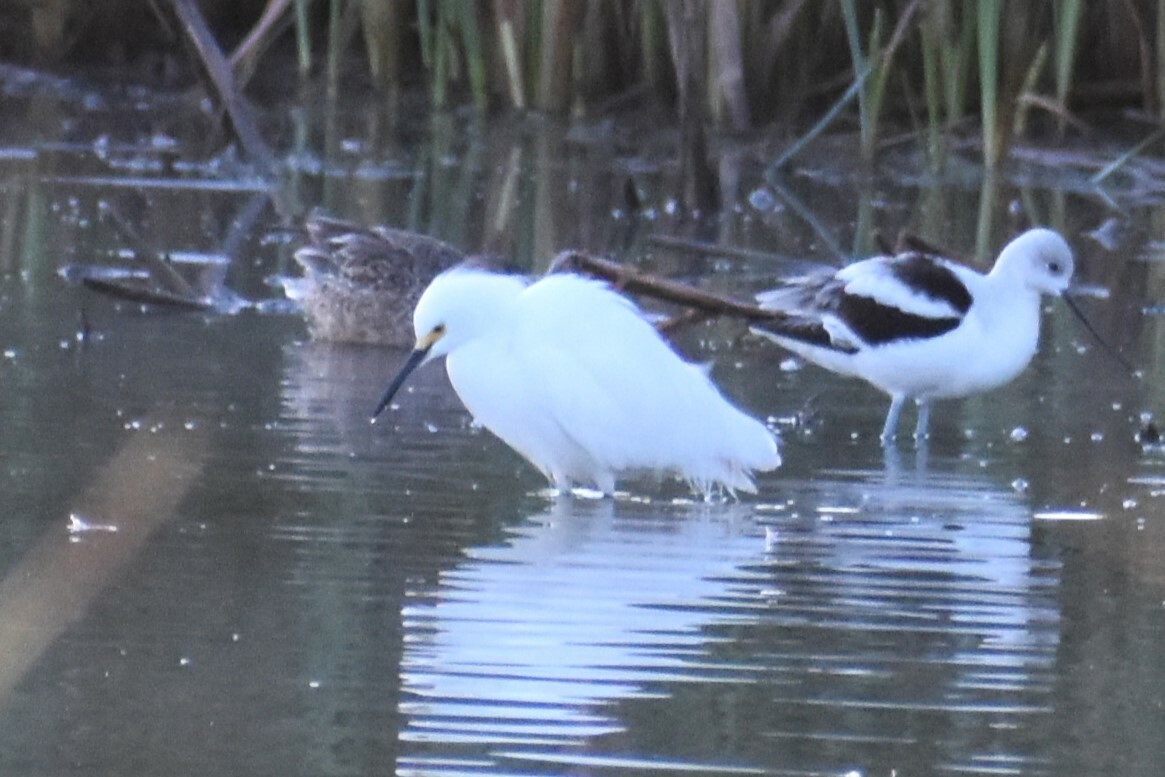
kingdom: Animalia
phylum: Chordata
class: Aves
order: Pelecaniformes
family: Ardeidae
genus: Egretta
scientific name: Egretta thula
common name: Snowy egret
